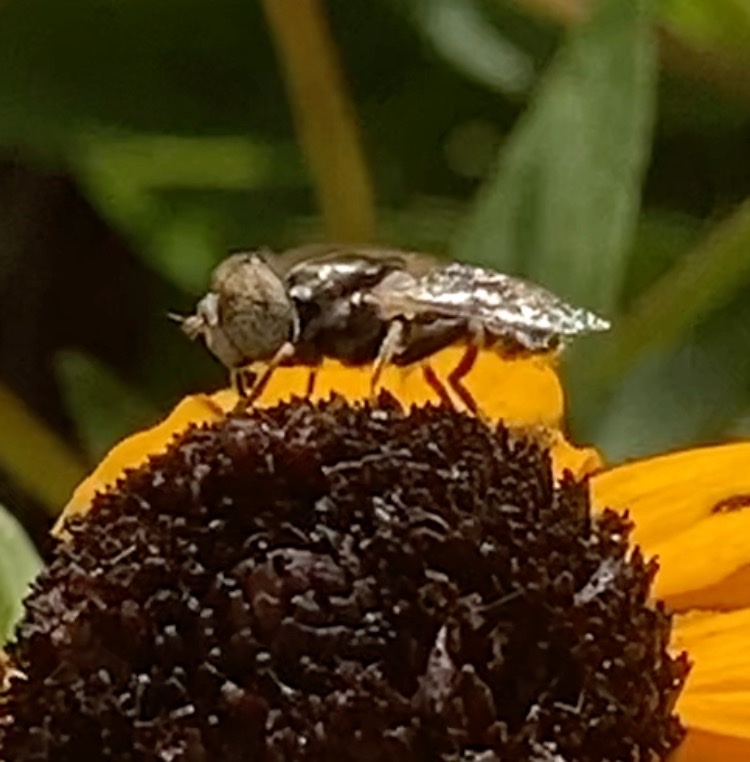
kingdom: Animalia
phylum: Arthropoda
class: Insecta
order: Diptera
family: Syrphidae
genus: Eristalinus
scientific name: Eristalinus aeneus
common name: Syrphid fly
